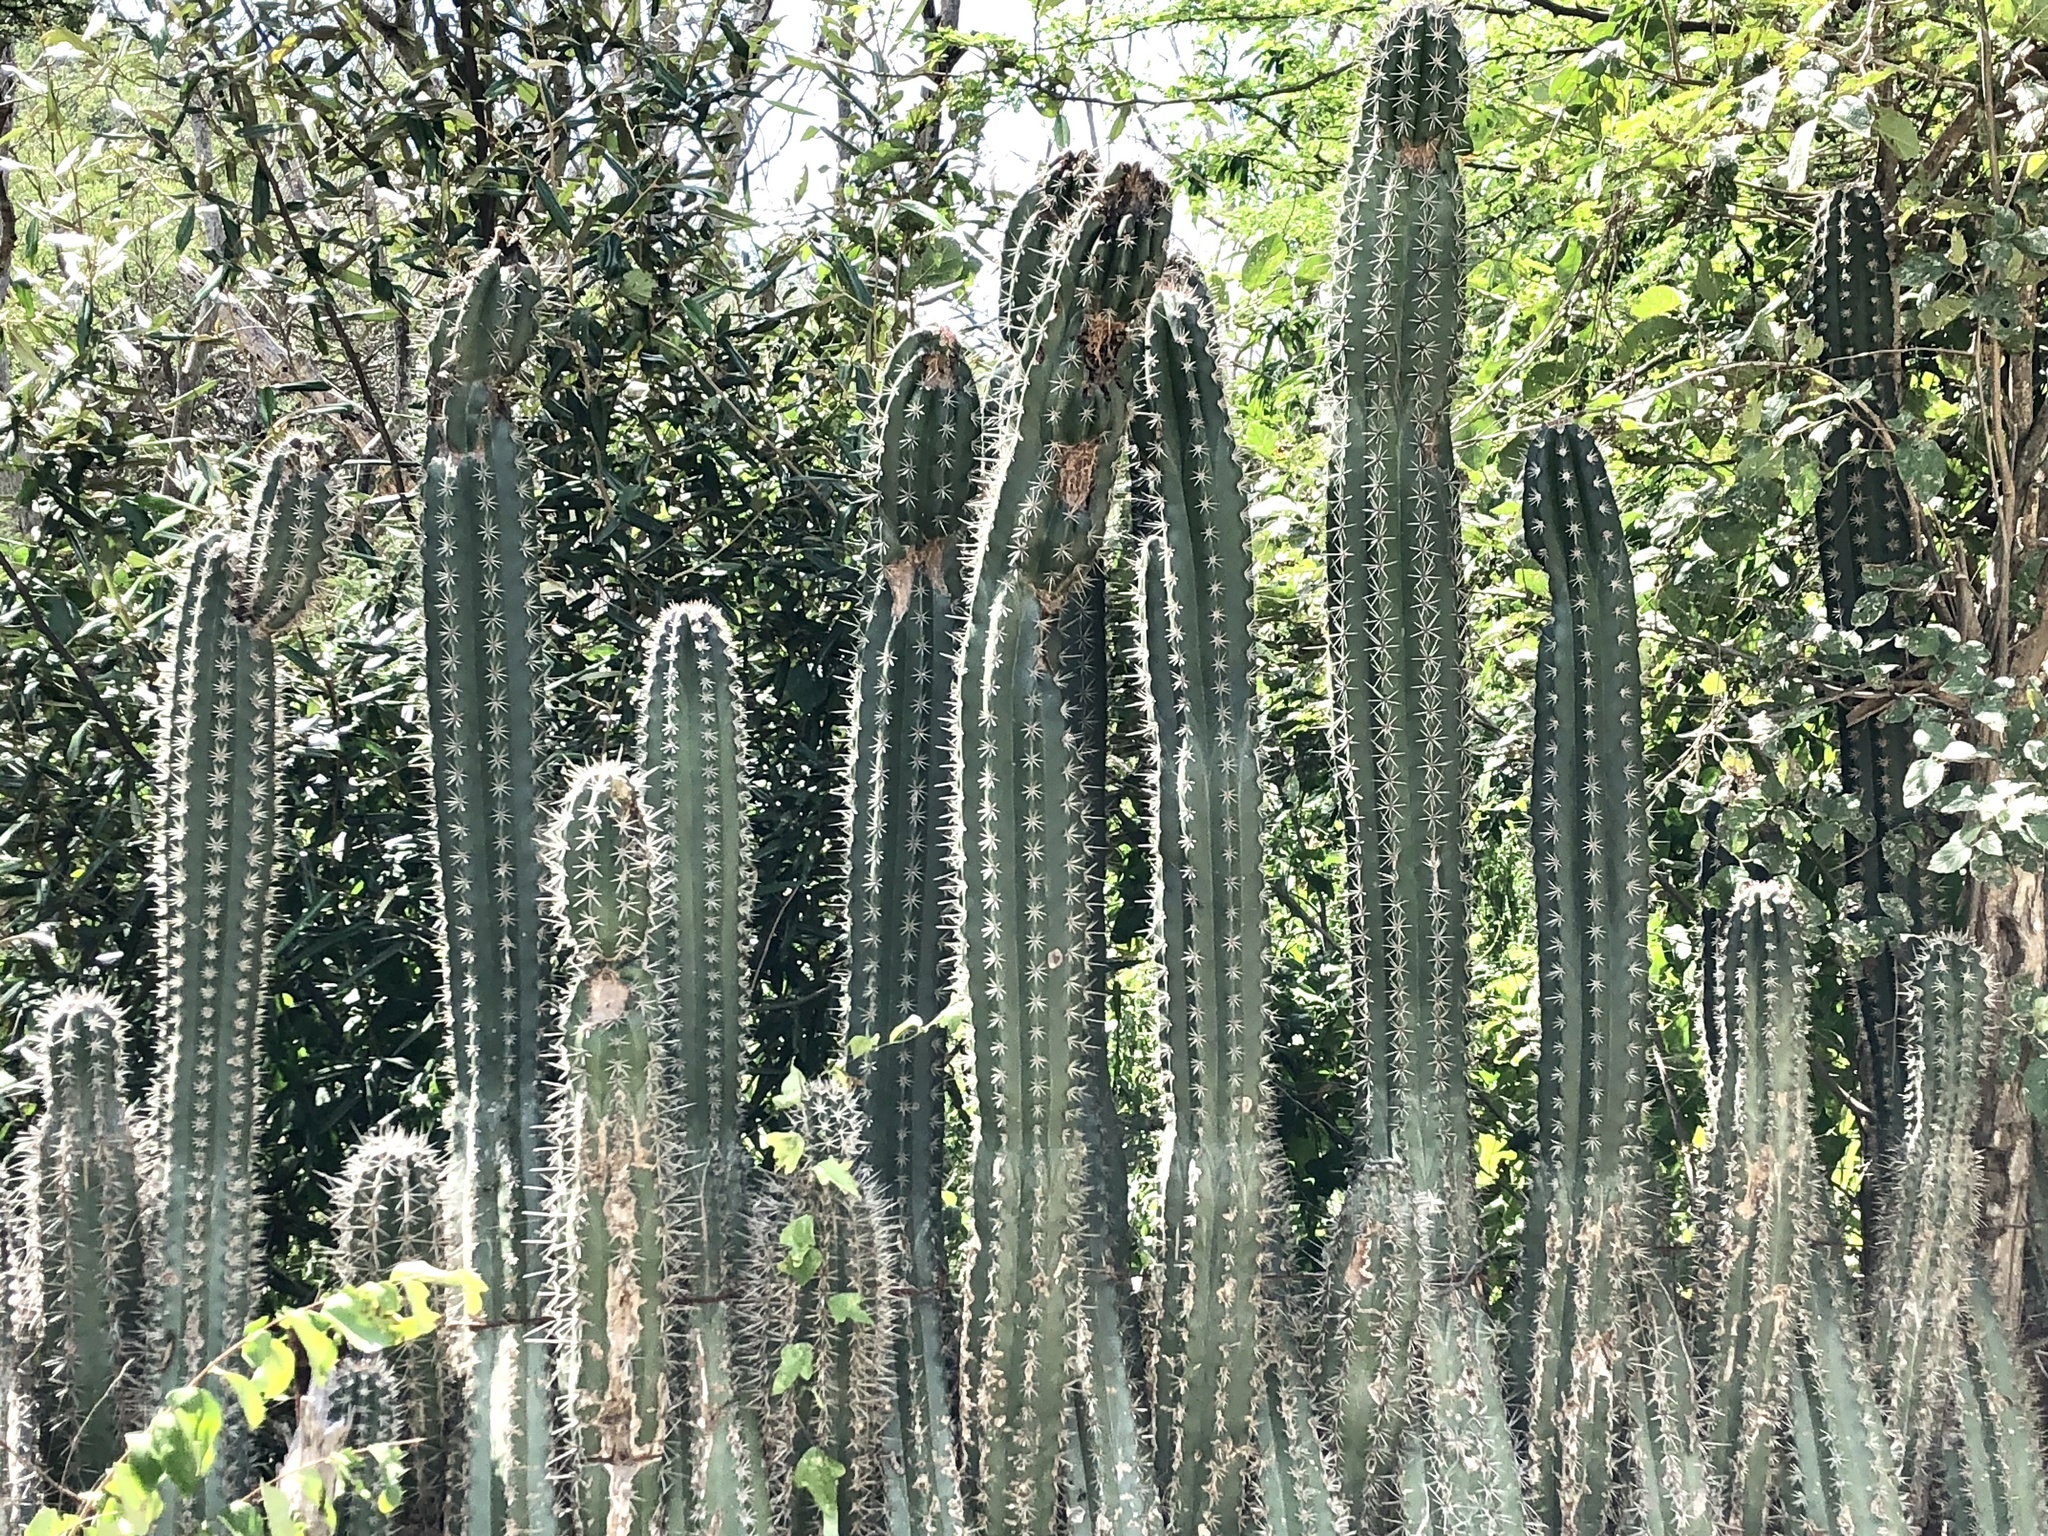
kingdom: Plantae
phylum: Tracheophyta
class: Magnoliopsida
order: Caryophyllales
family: Cactaceae
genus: Stenocereus
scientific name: Stenocereus griseus
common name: Tall candelabra cactus
